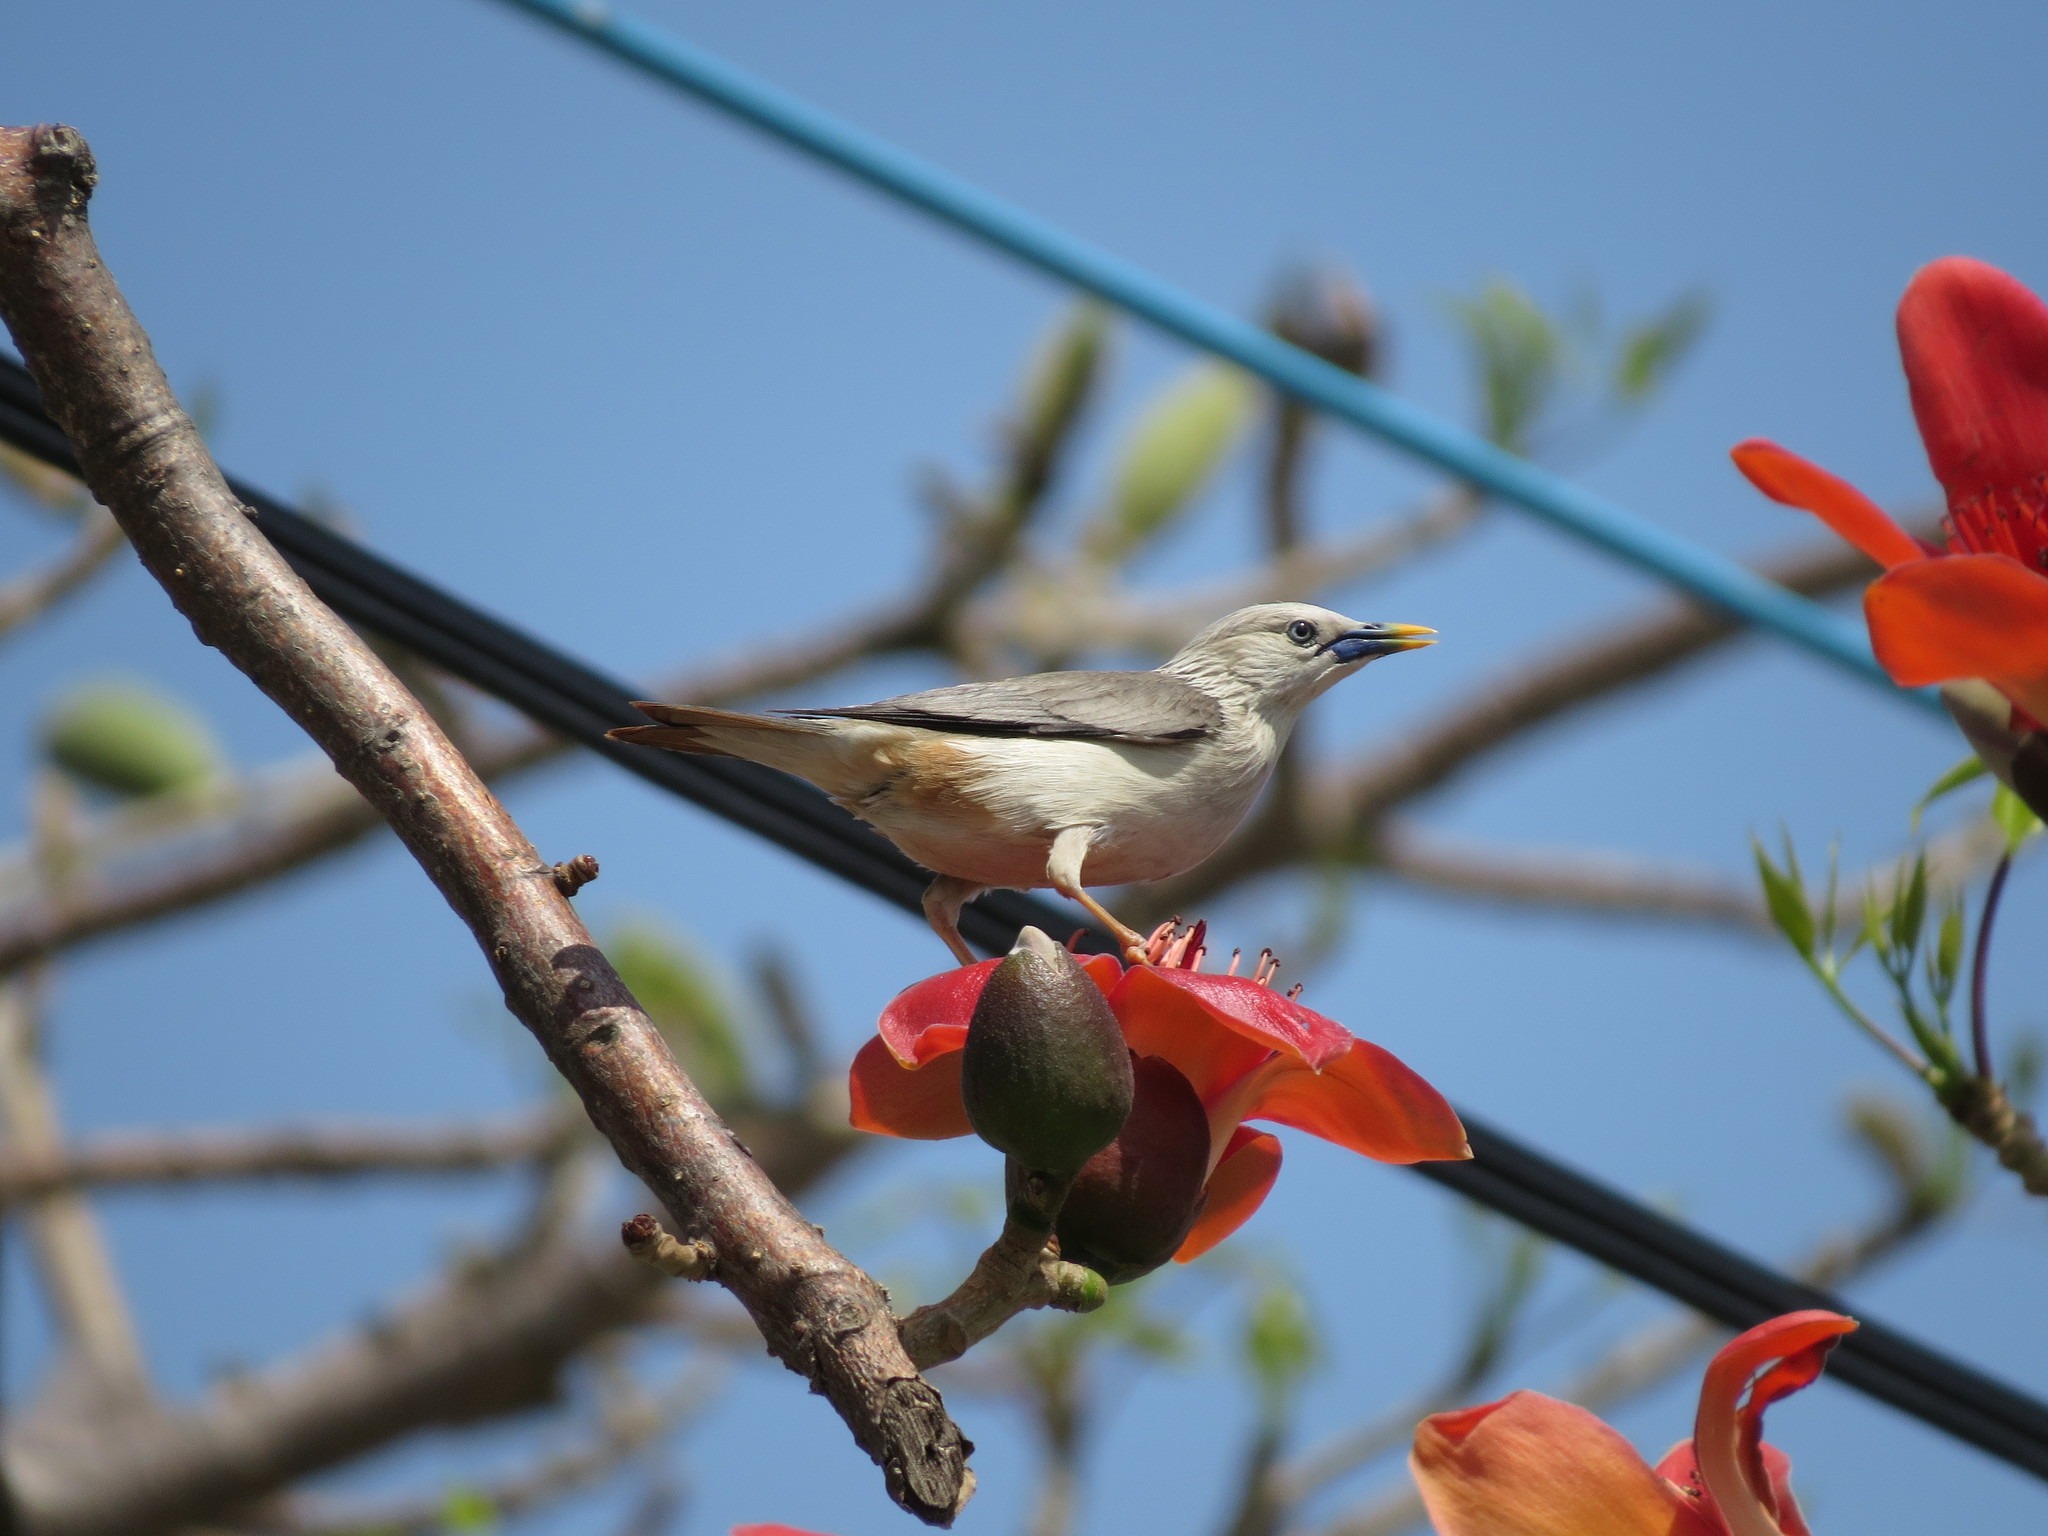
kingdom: Animalia
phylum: Chordata
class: Aves
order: Passeriformes
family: Sturnidae
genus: Sturnia
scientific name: Sturnia malabarica
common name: Chestnut-tailed starling
